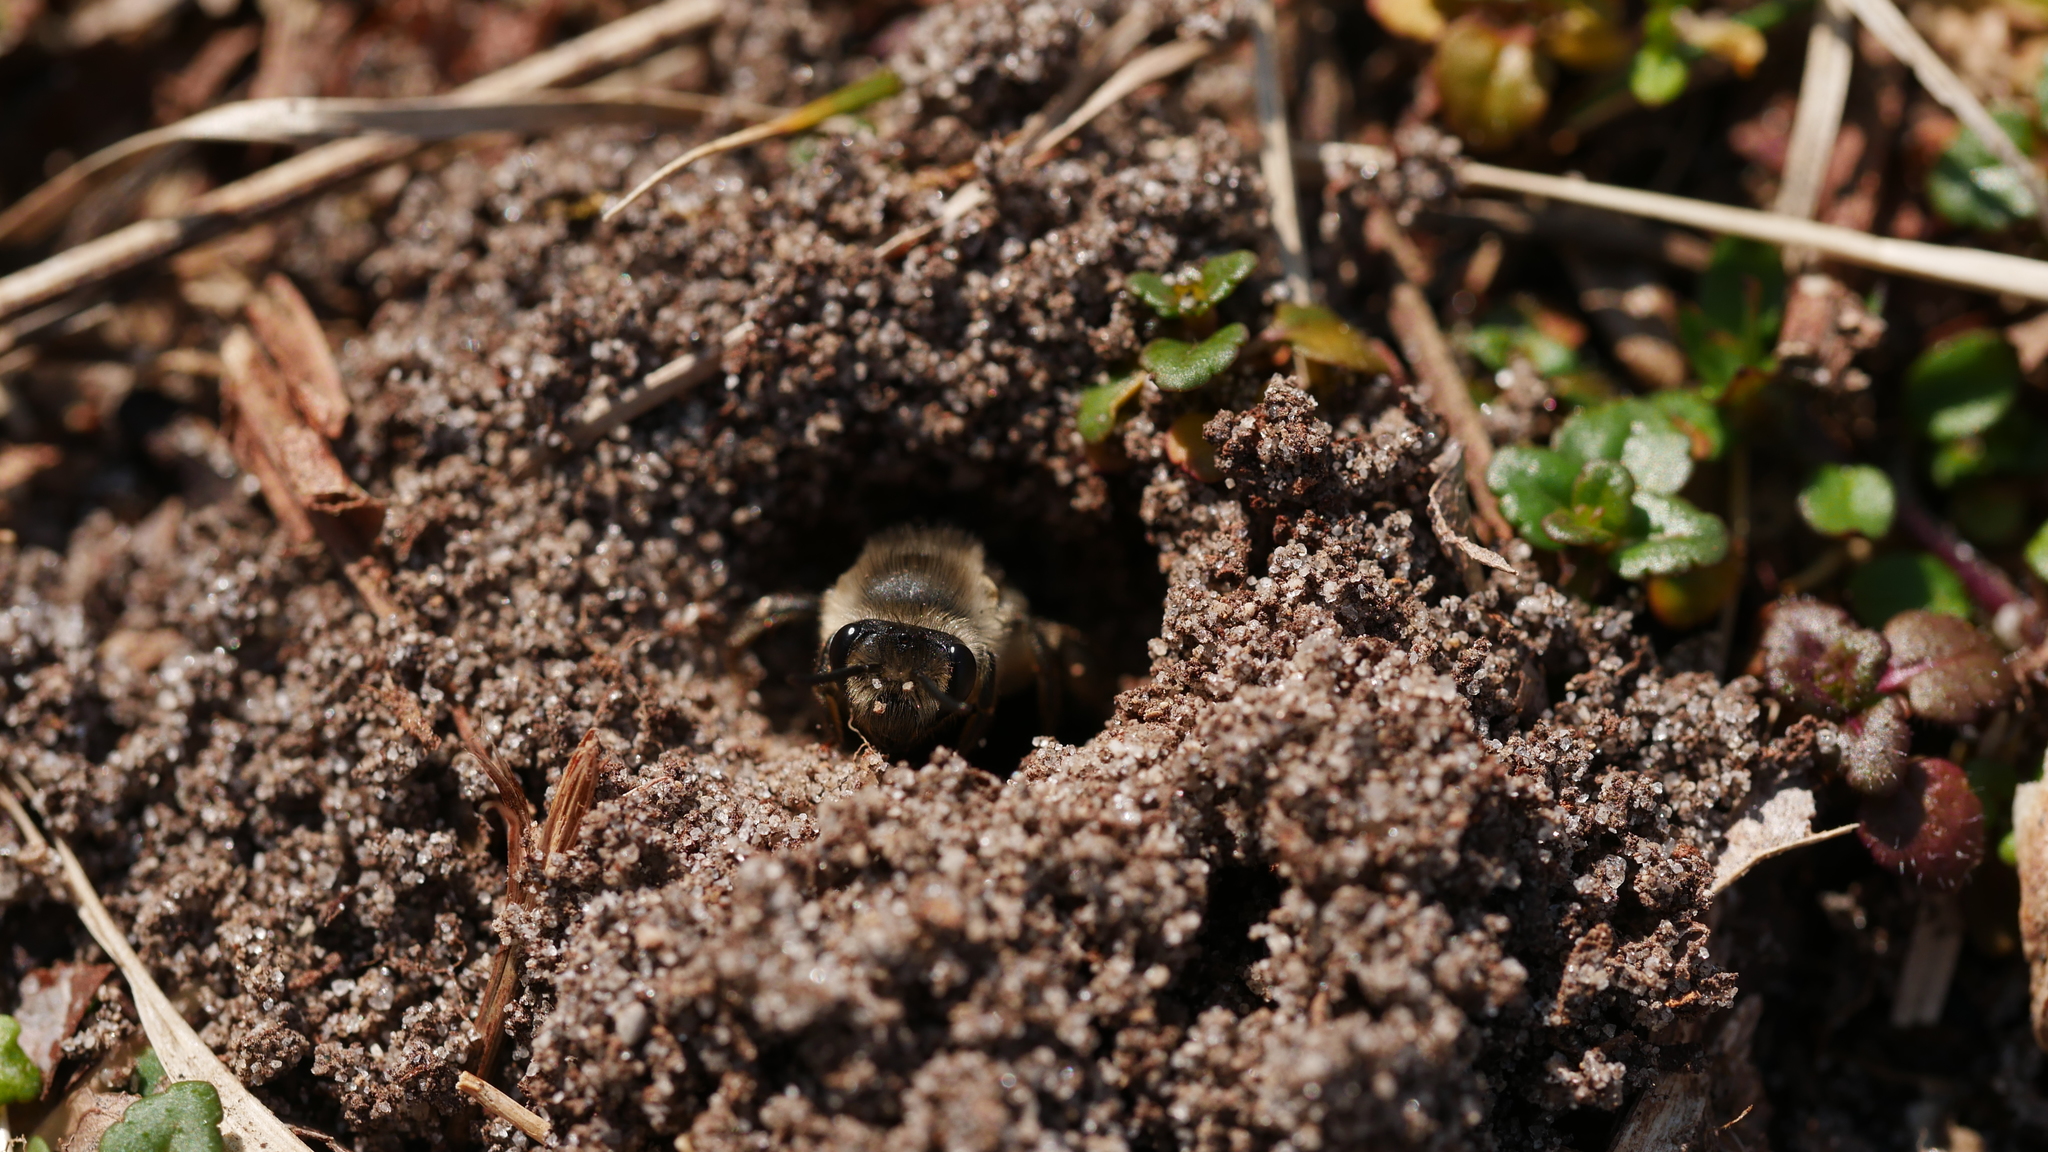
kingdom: Animalia
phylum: Arthropoda
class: Insecta
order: Hymenoptera
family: Colletidae
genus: Colletes
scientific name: Colletes inaequalis
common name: Unequal cellophane bee
